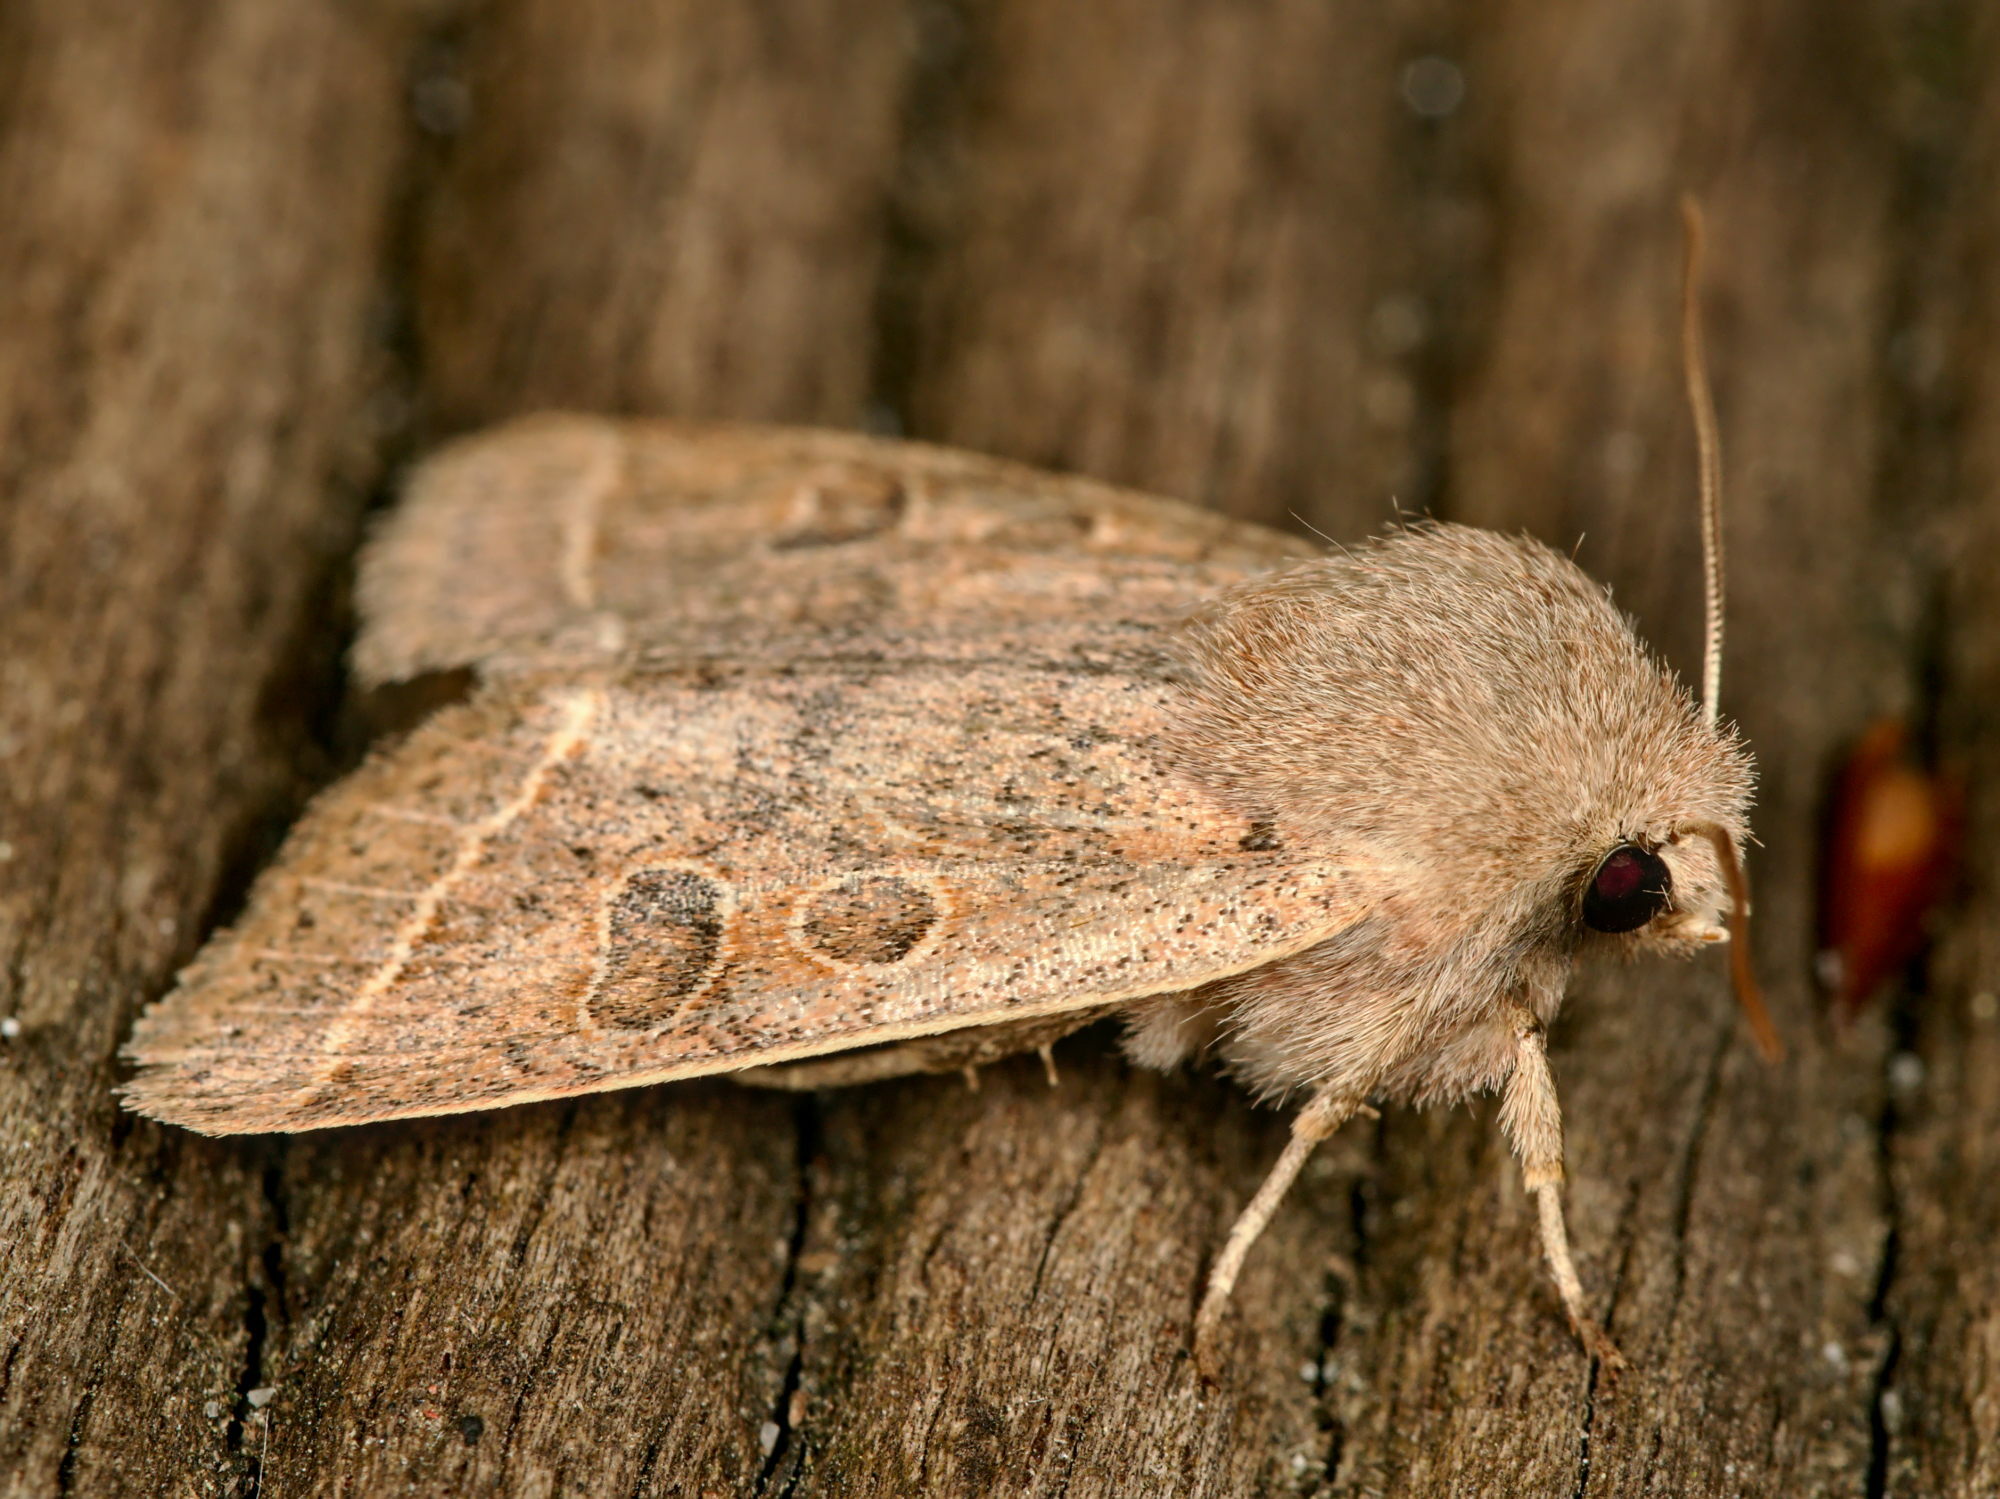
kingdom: Animalia
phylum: Arthropoda
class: Insecta
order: Lepidoptera
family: Noctuidae
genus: Orthosia
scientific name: Orthosia cerasi
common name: Common quaker
